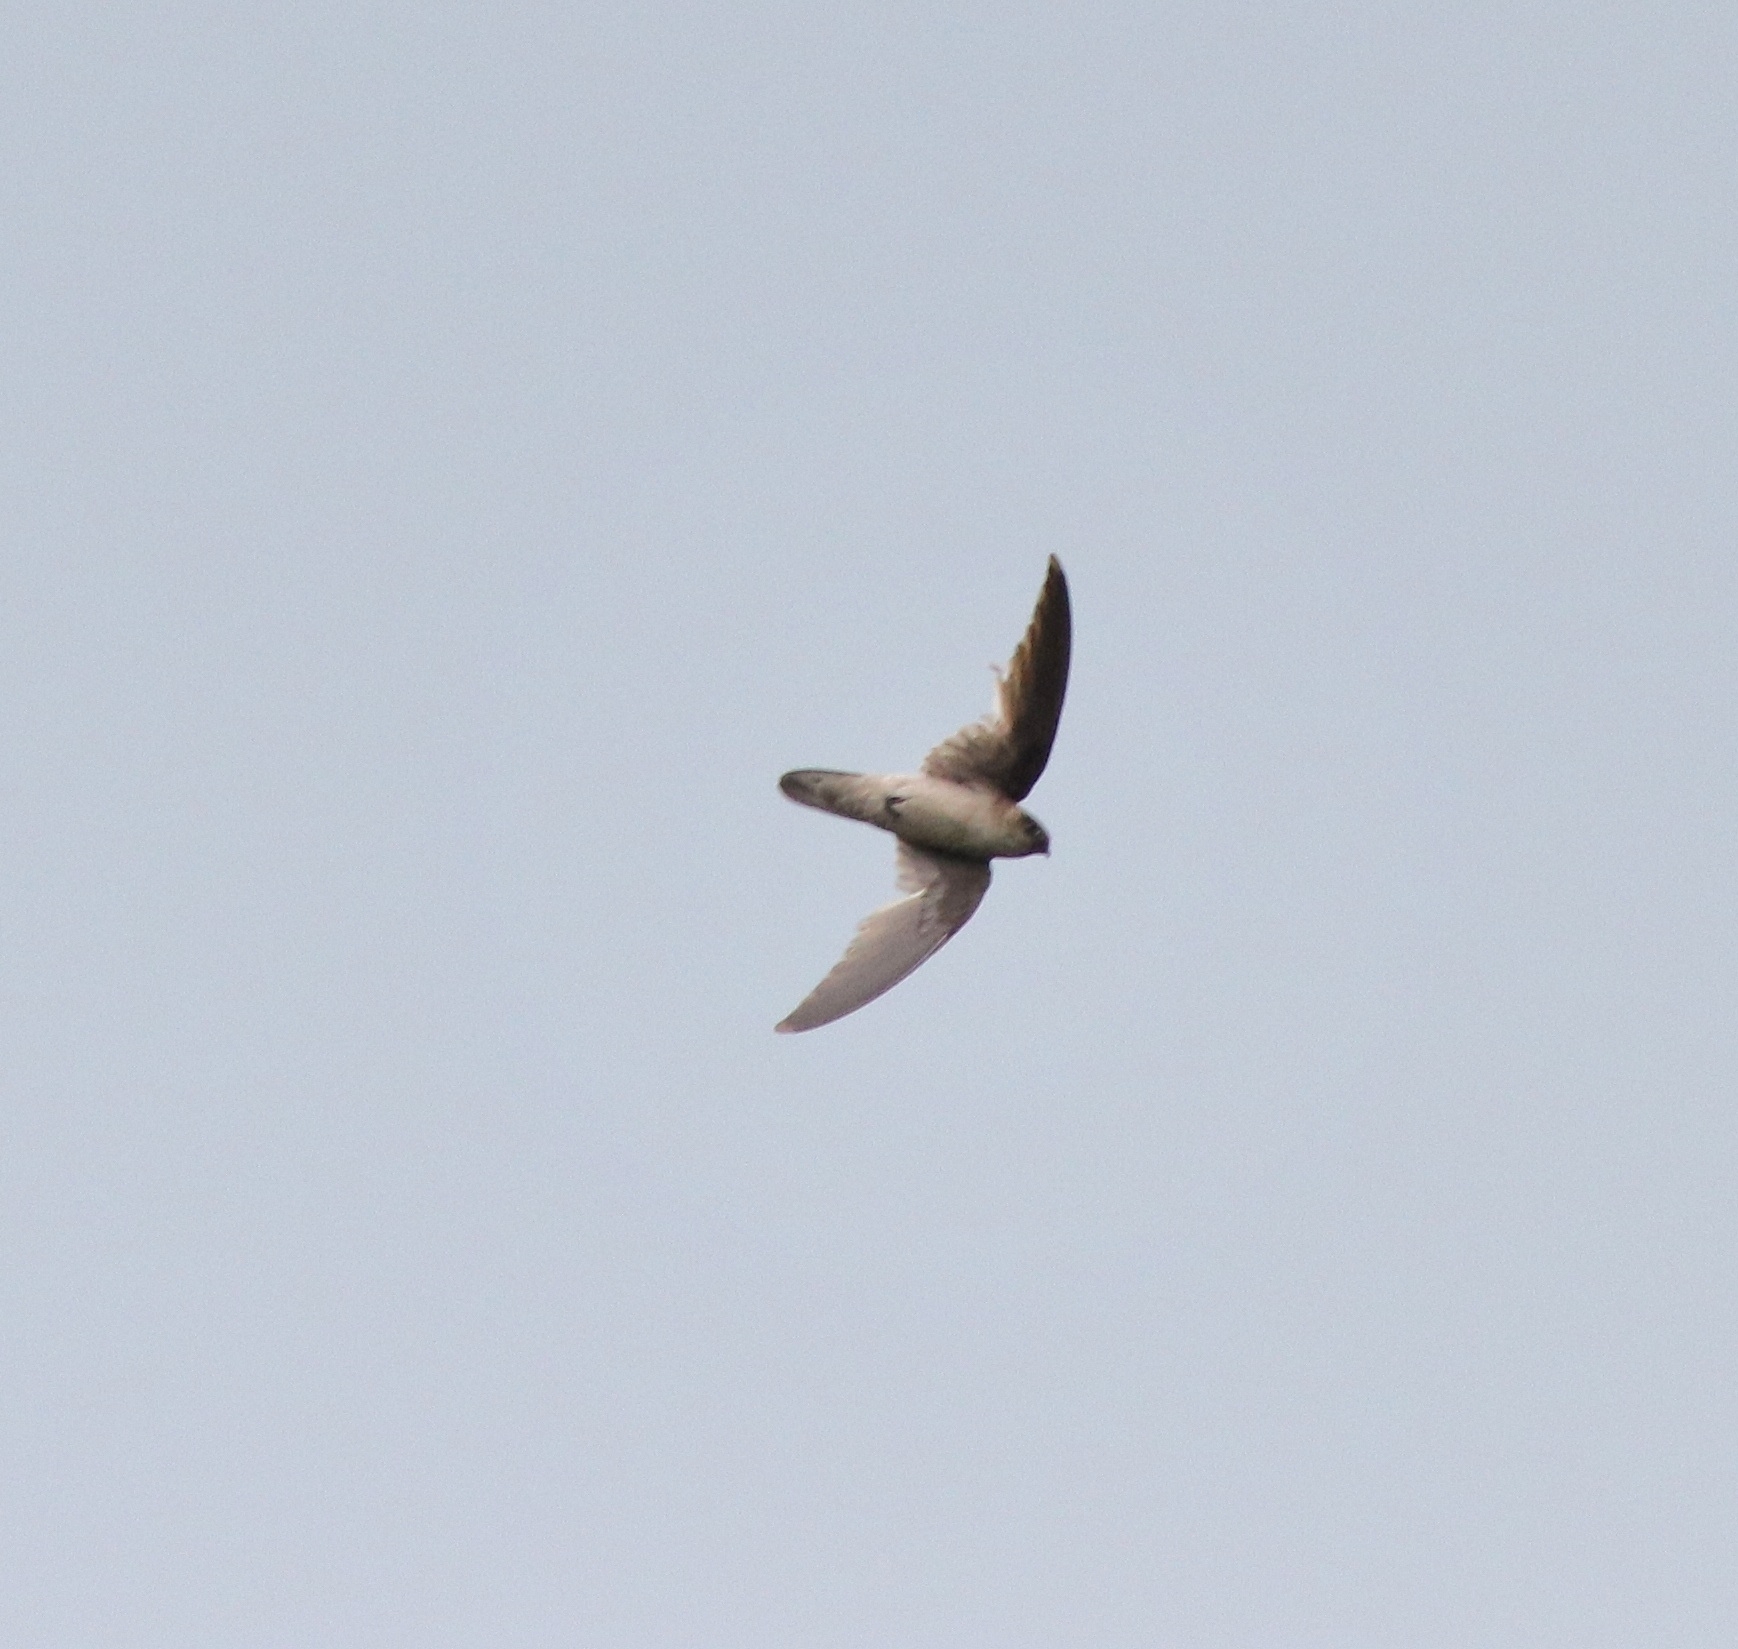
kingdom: Animalia
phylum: Chordata
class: Aves
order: Apodiformes
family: Apodidae
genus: Aerodramus
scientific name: Aerodramus unicolor
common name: Indian swiftlet
